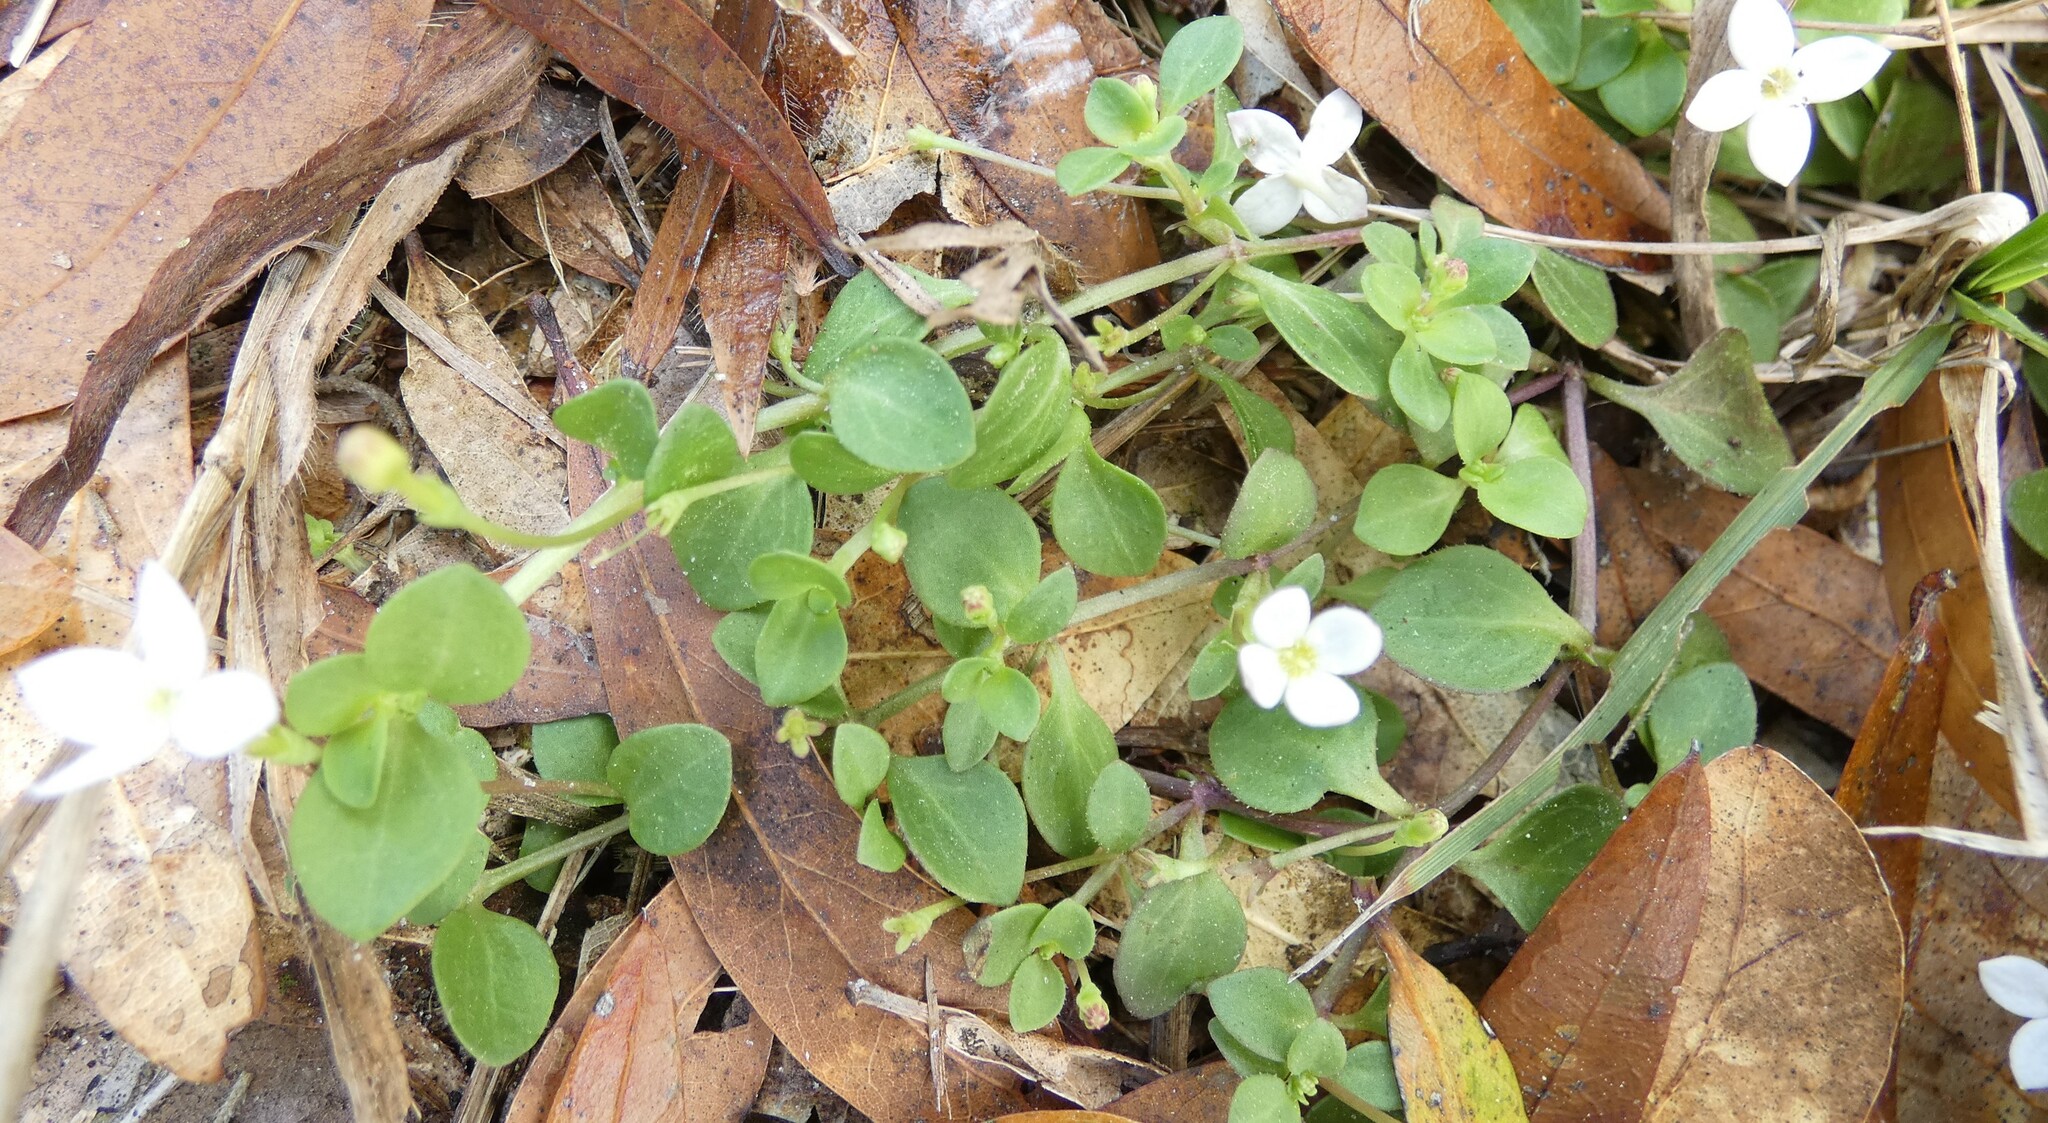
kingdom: Plantae
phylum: Tracheophyta
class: Magnoliopsida
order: Gentianales
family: Rubiaceae
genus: Houstonia
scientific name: Houstonia procumbens
